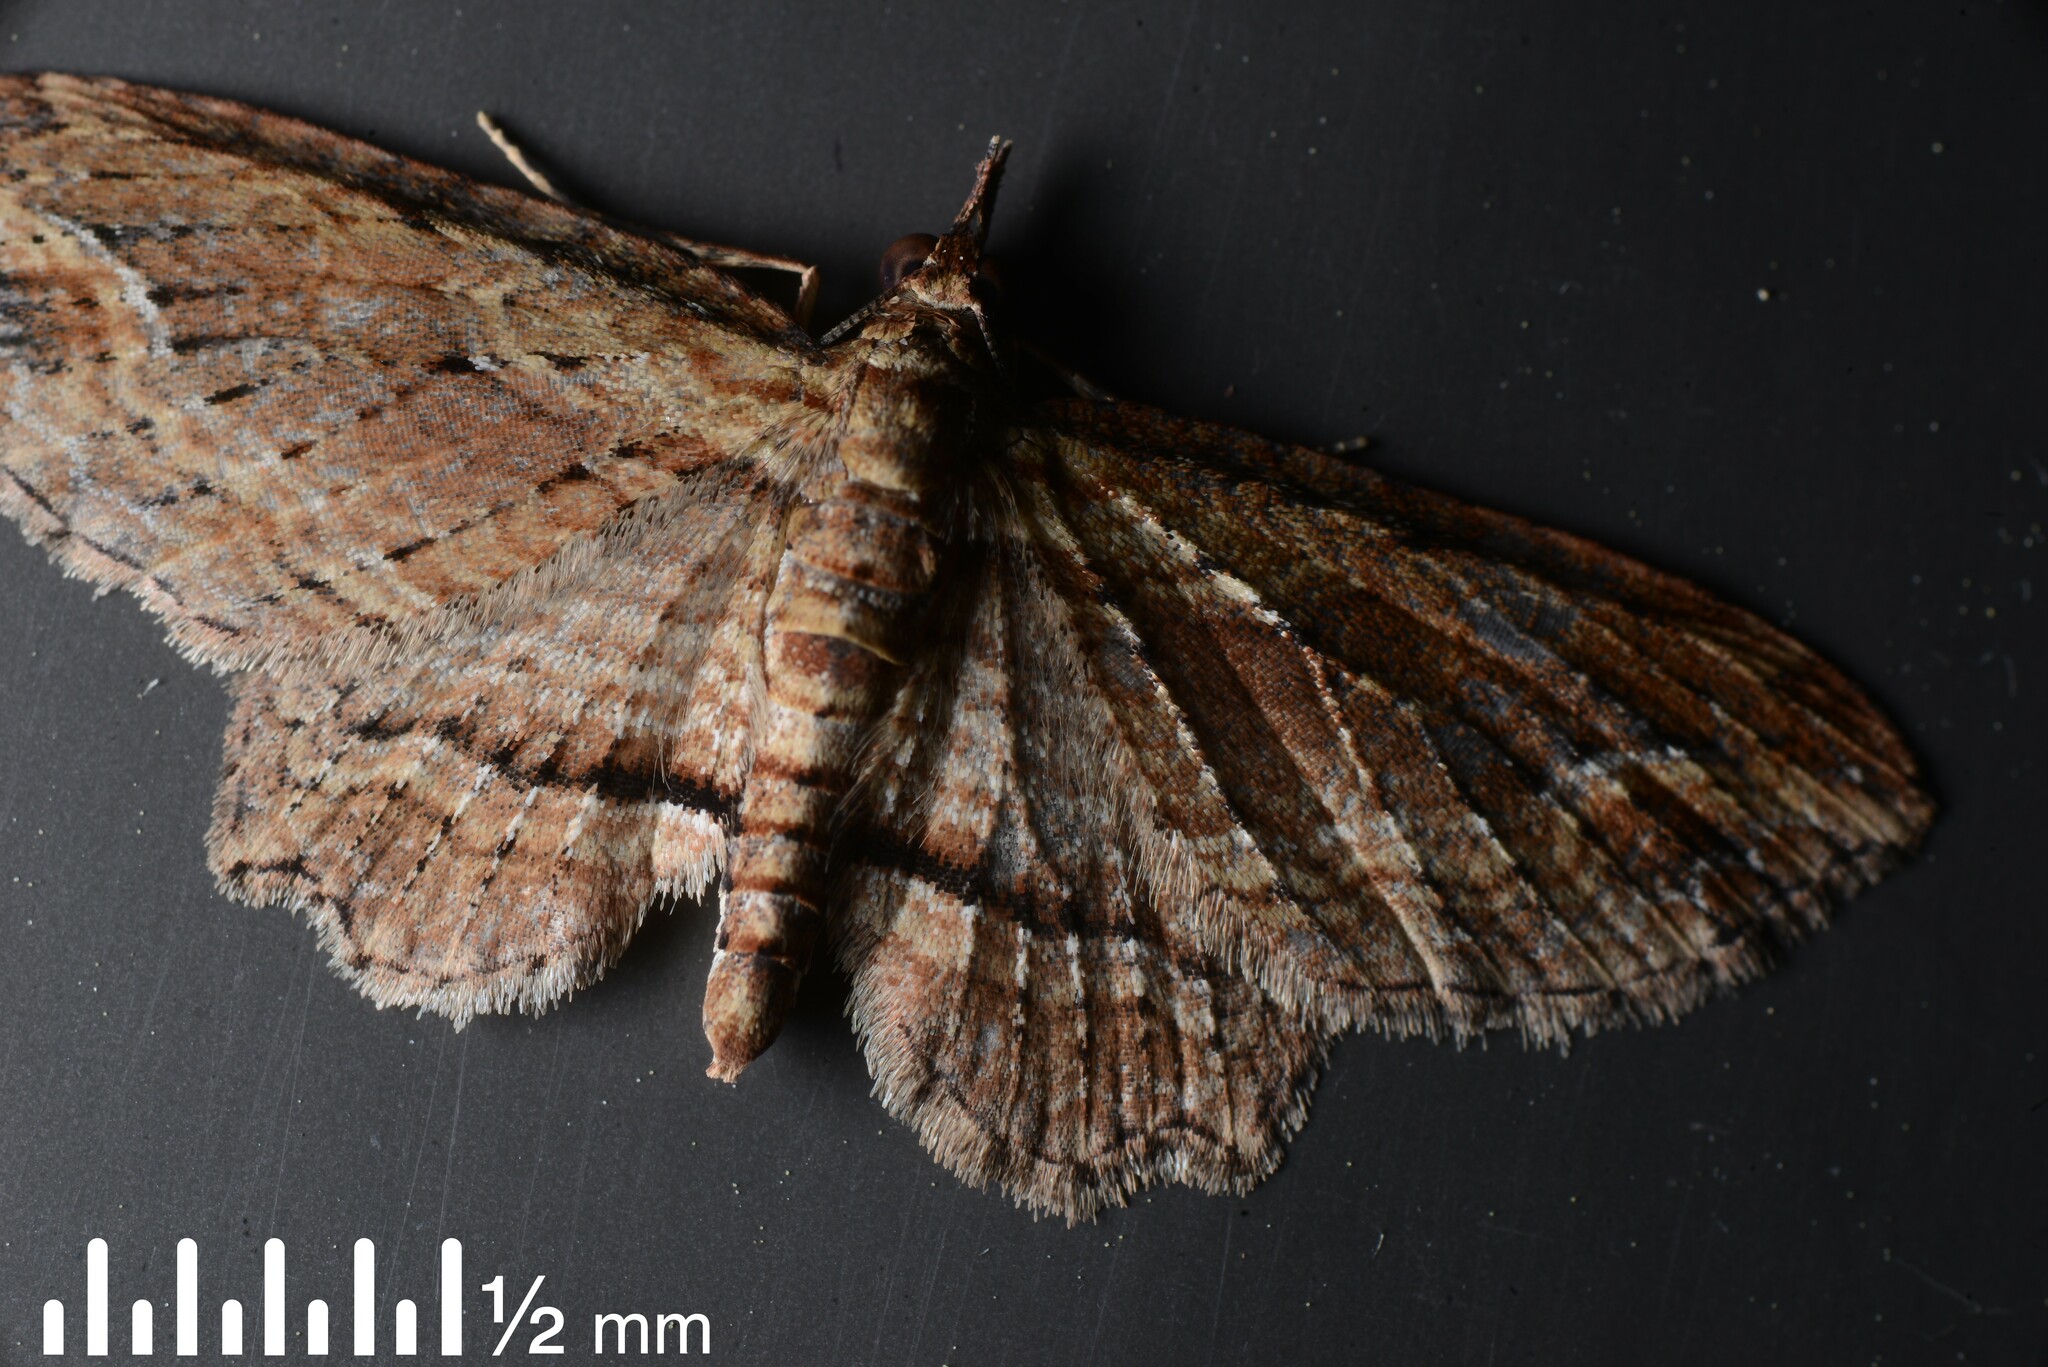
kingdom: Animalia
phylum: Arthropoda
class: Insecta
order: Lepidoptera
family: Geometridae
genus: Chloroclystis
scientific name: Chloroclystis filata
